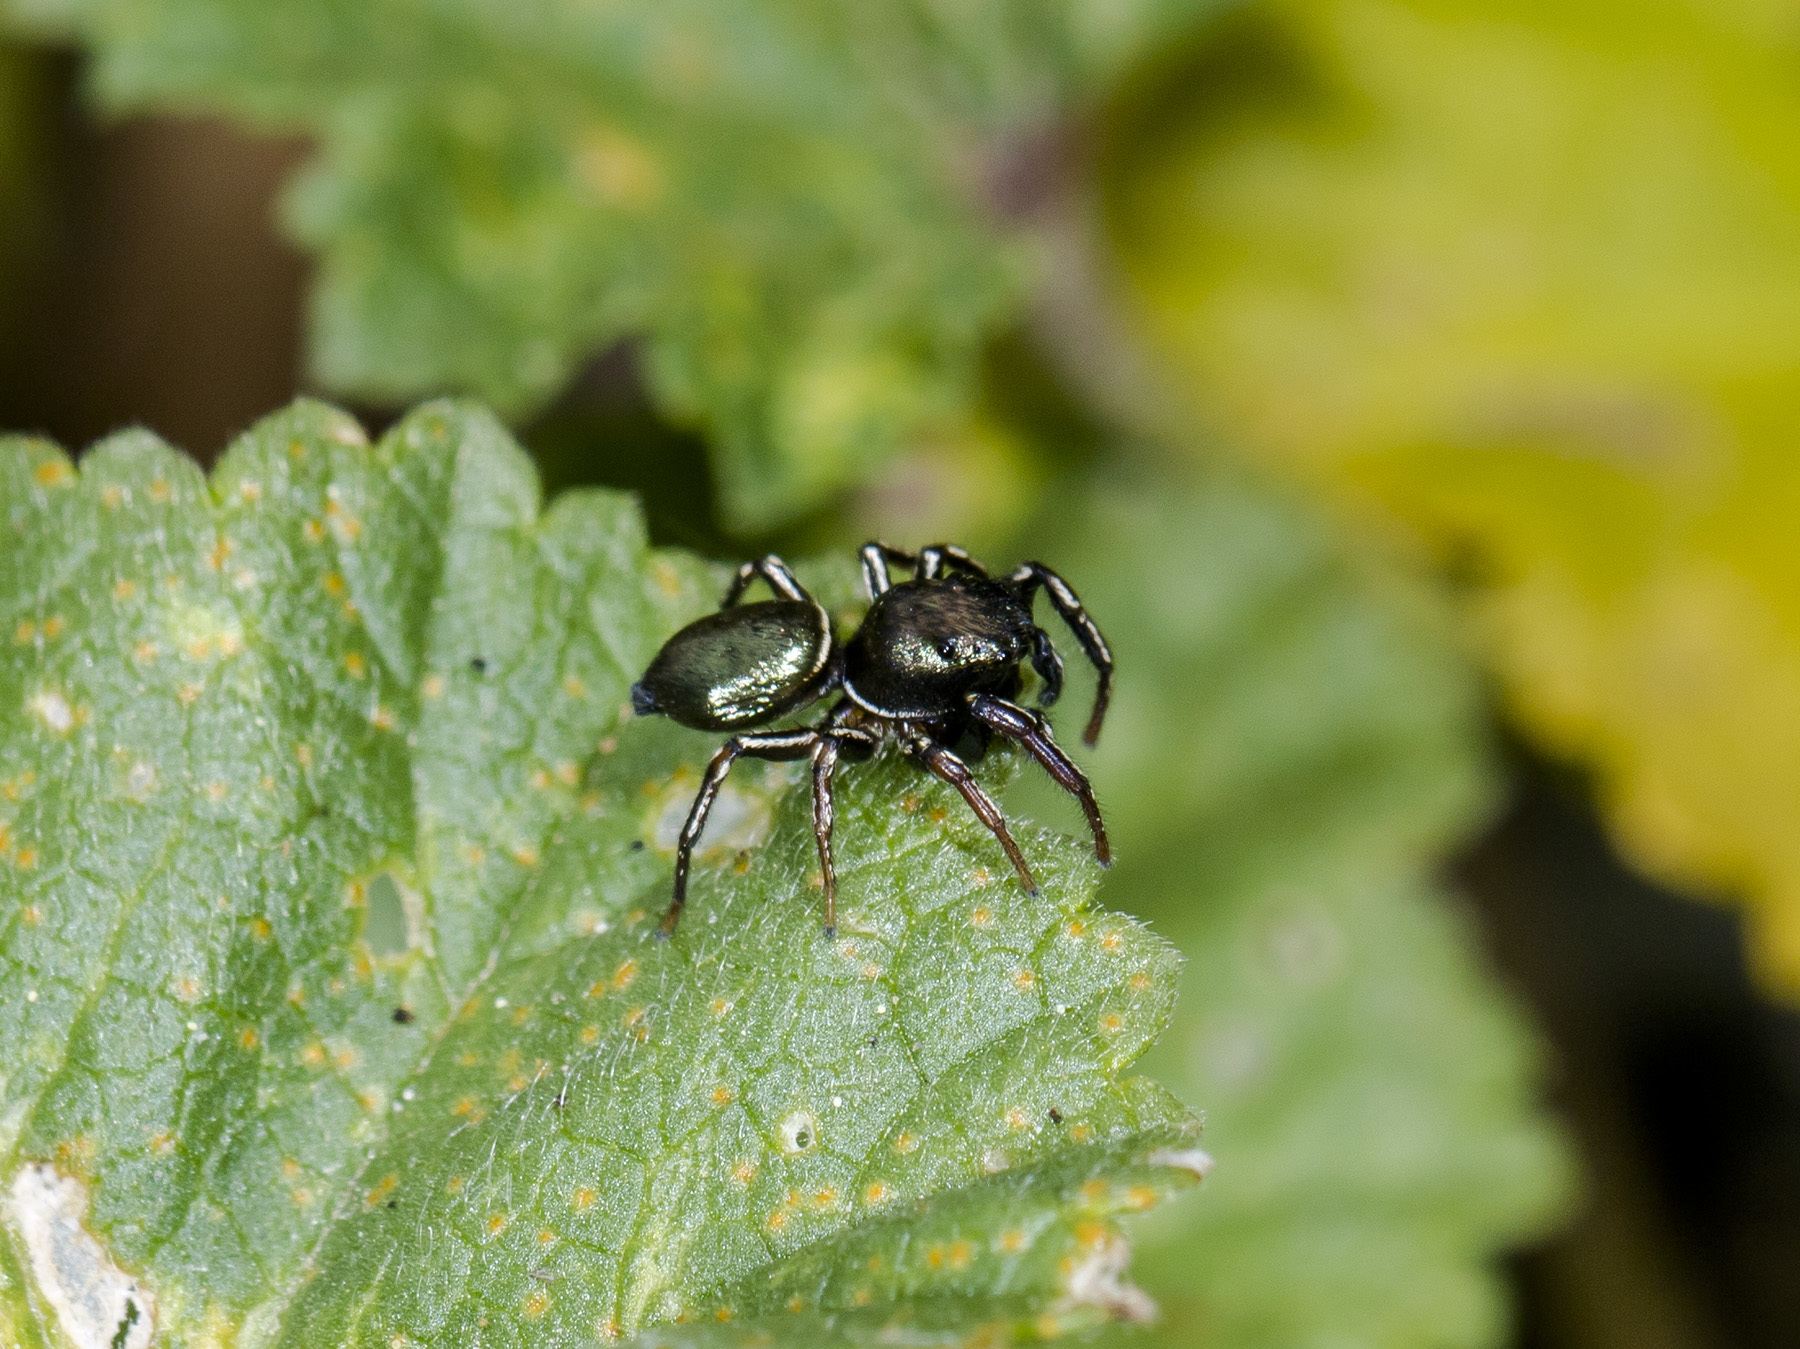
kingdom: Animalia
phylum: Arthropoda
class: Arachnida
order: Araneae
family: Salticidae
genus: Heliophanus
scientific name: Heliophanus auratus
